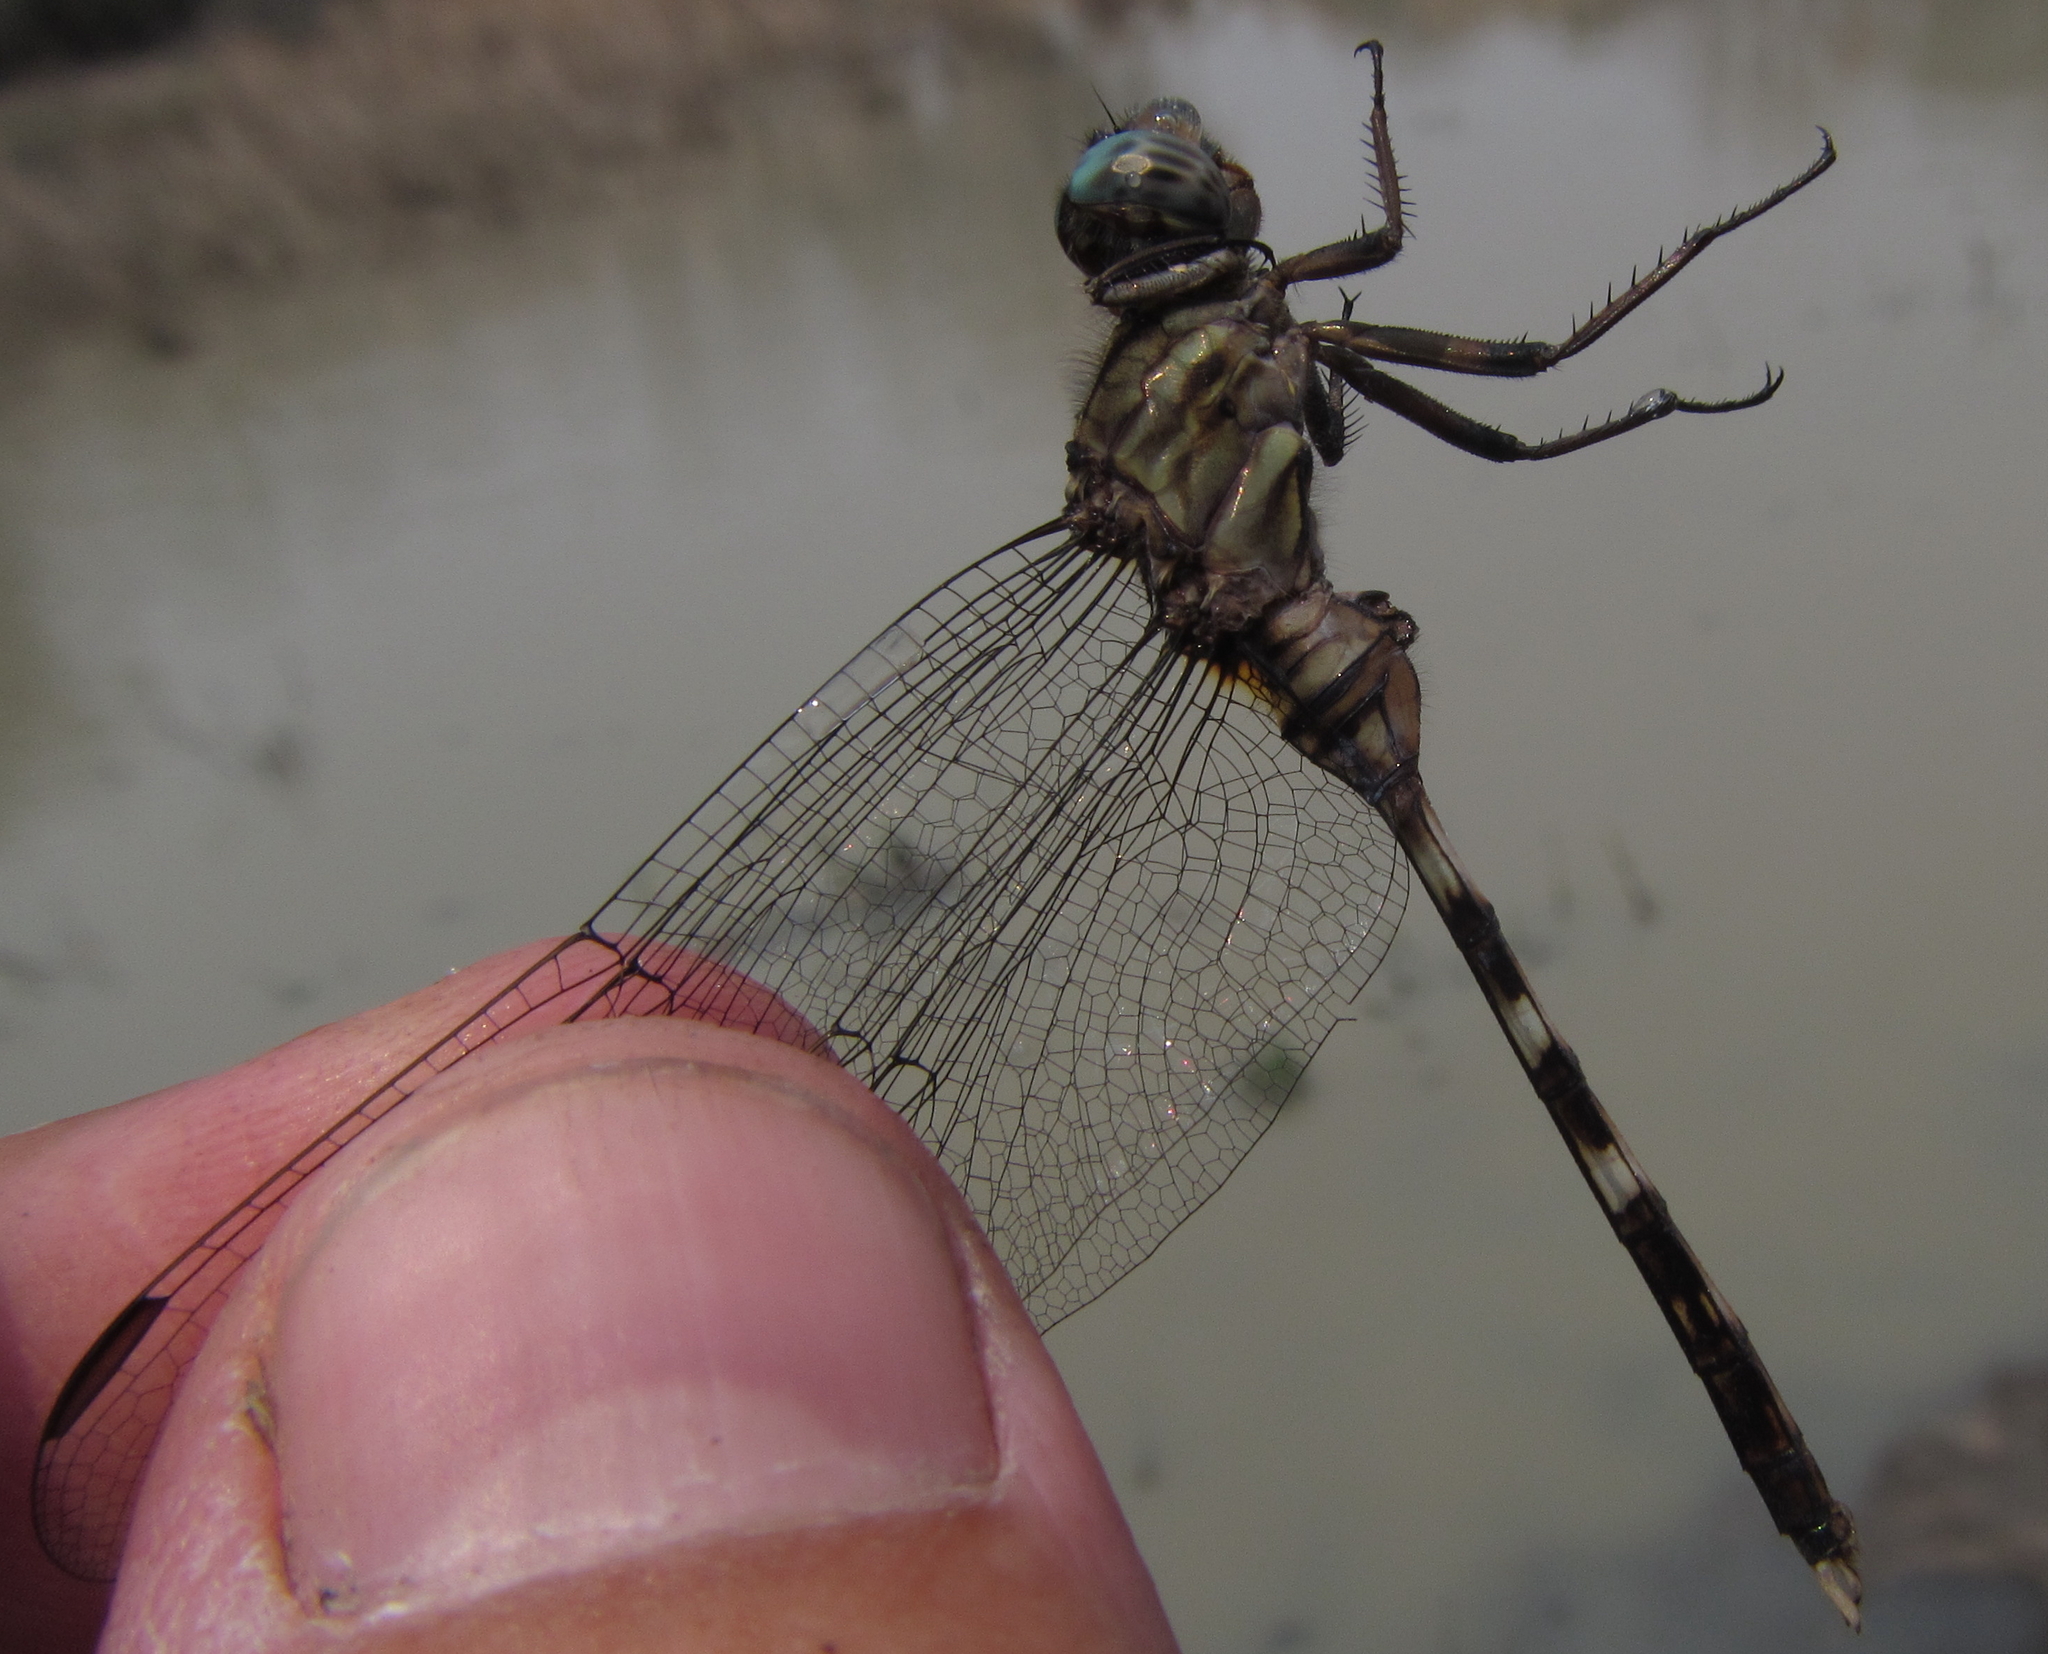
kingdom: Animalia
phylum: Arthropoda
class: Insecta
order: Odonata
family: Libellulidae
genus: Orthetrum
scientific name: Orthetrum stemmale
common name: Bold skimmer
